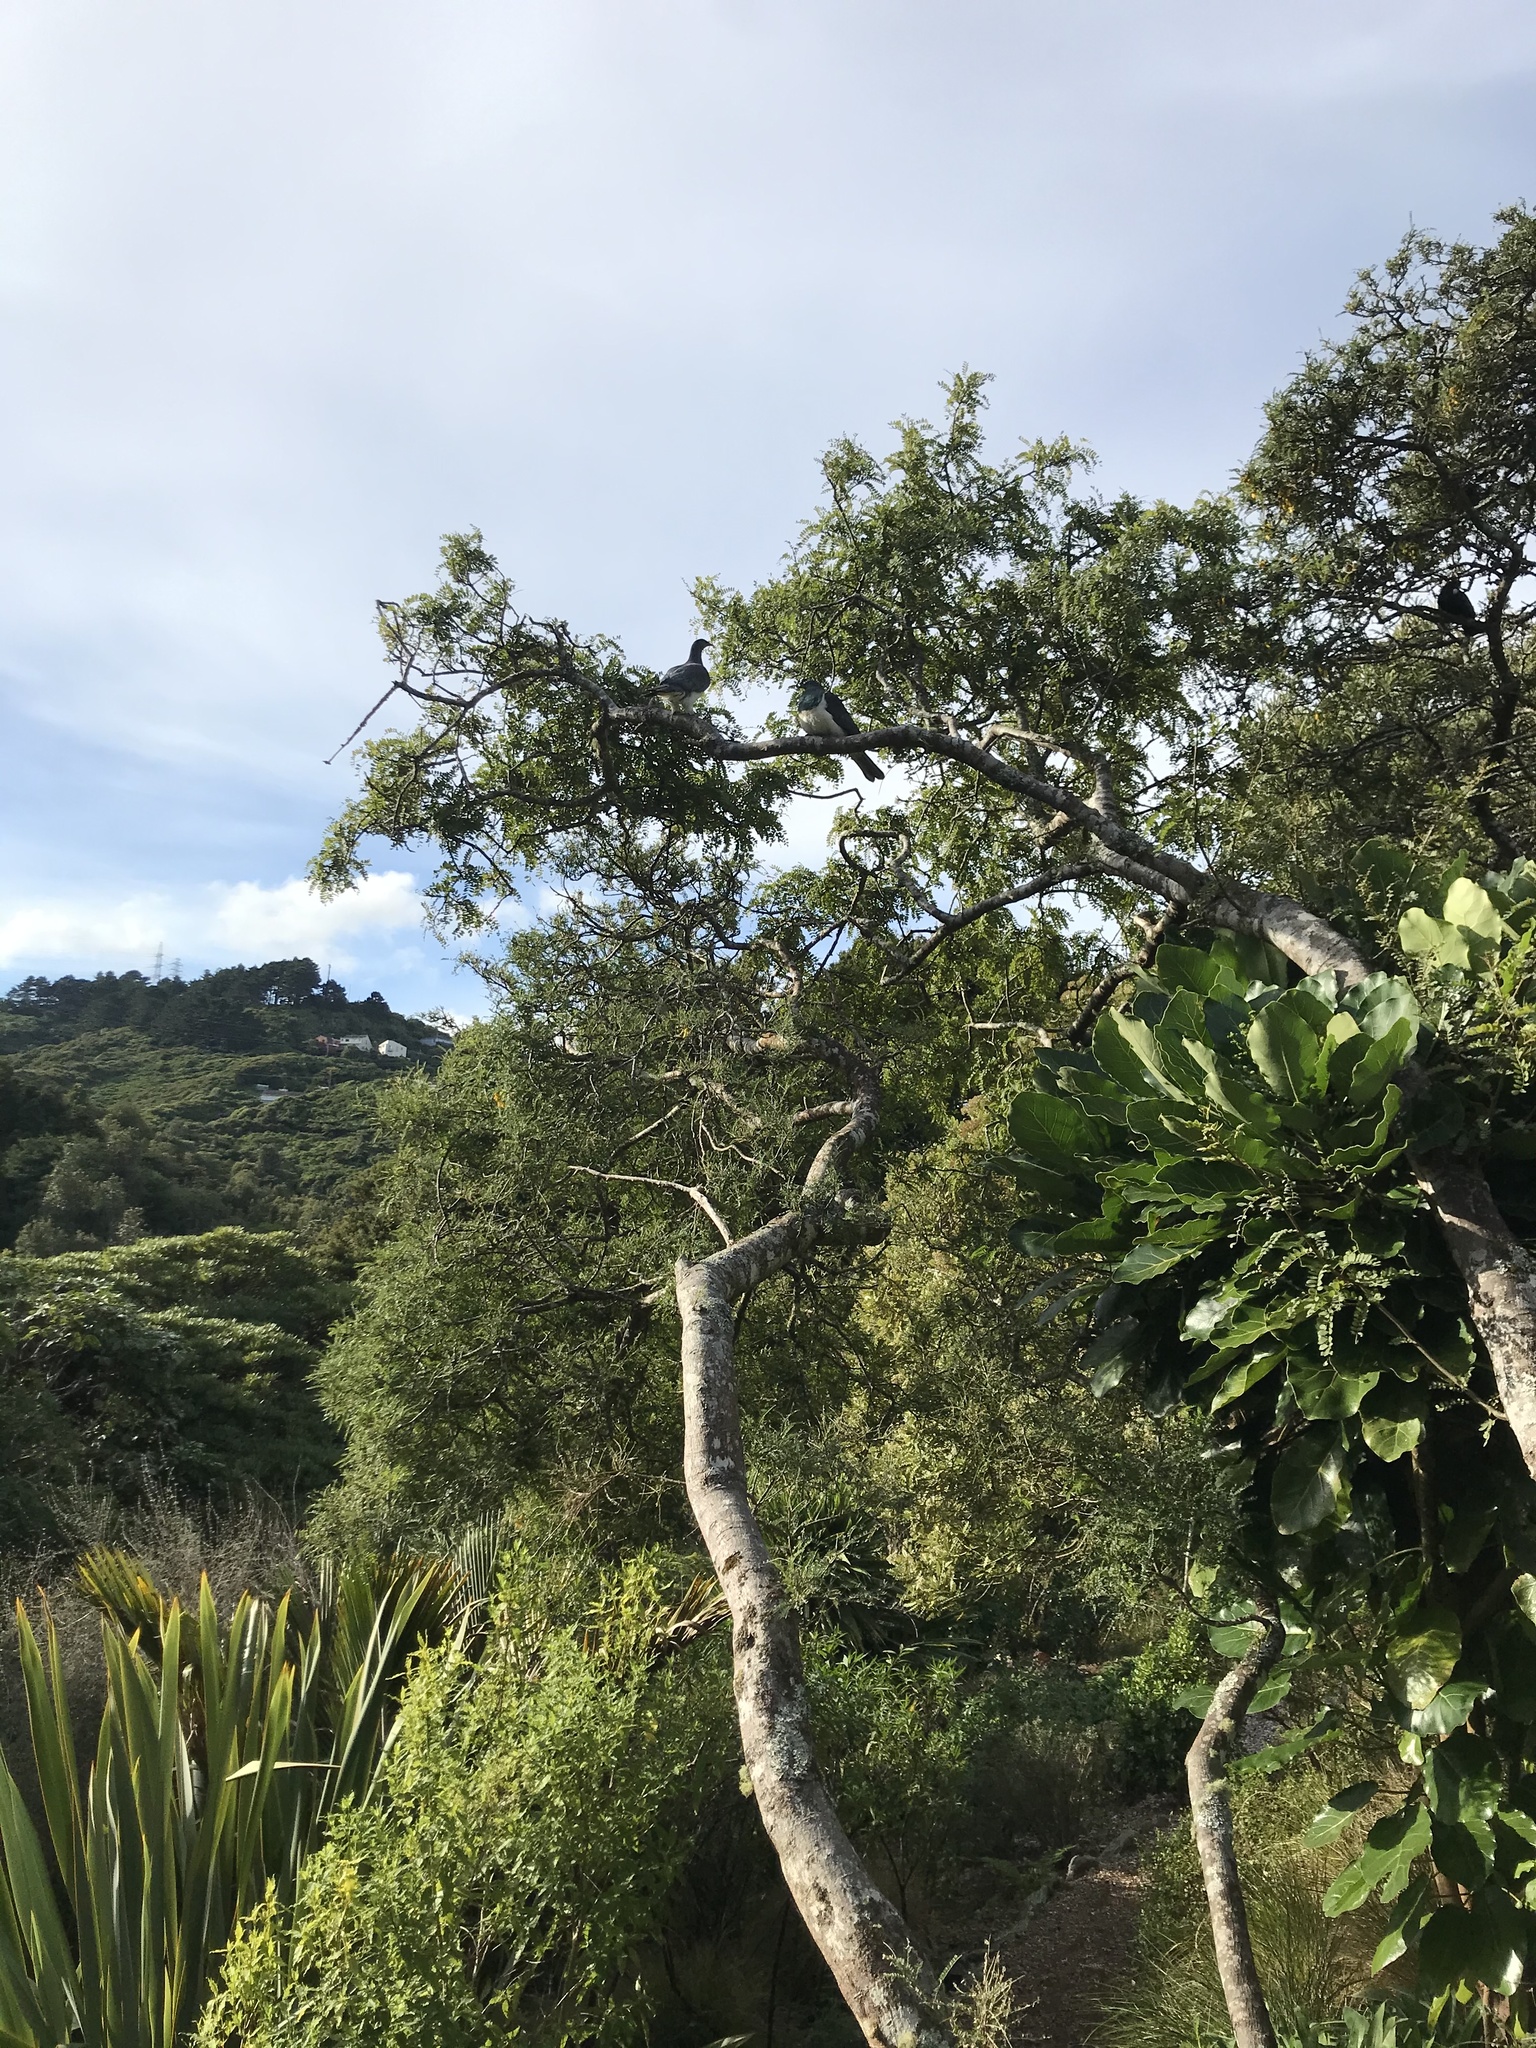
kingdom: Animalia
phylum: Chordata
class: Aves
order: Columbiformes
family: Columbidae
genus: Hemiphaga
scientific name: Hemiphaga novaeseelandiae
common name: New zealand pigeon
